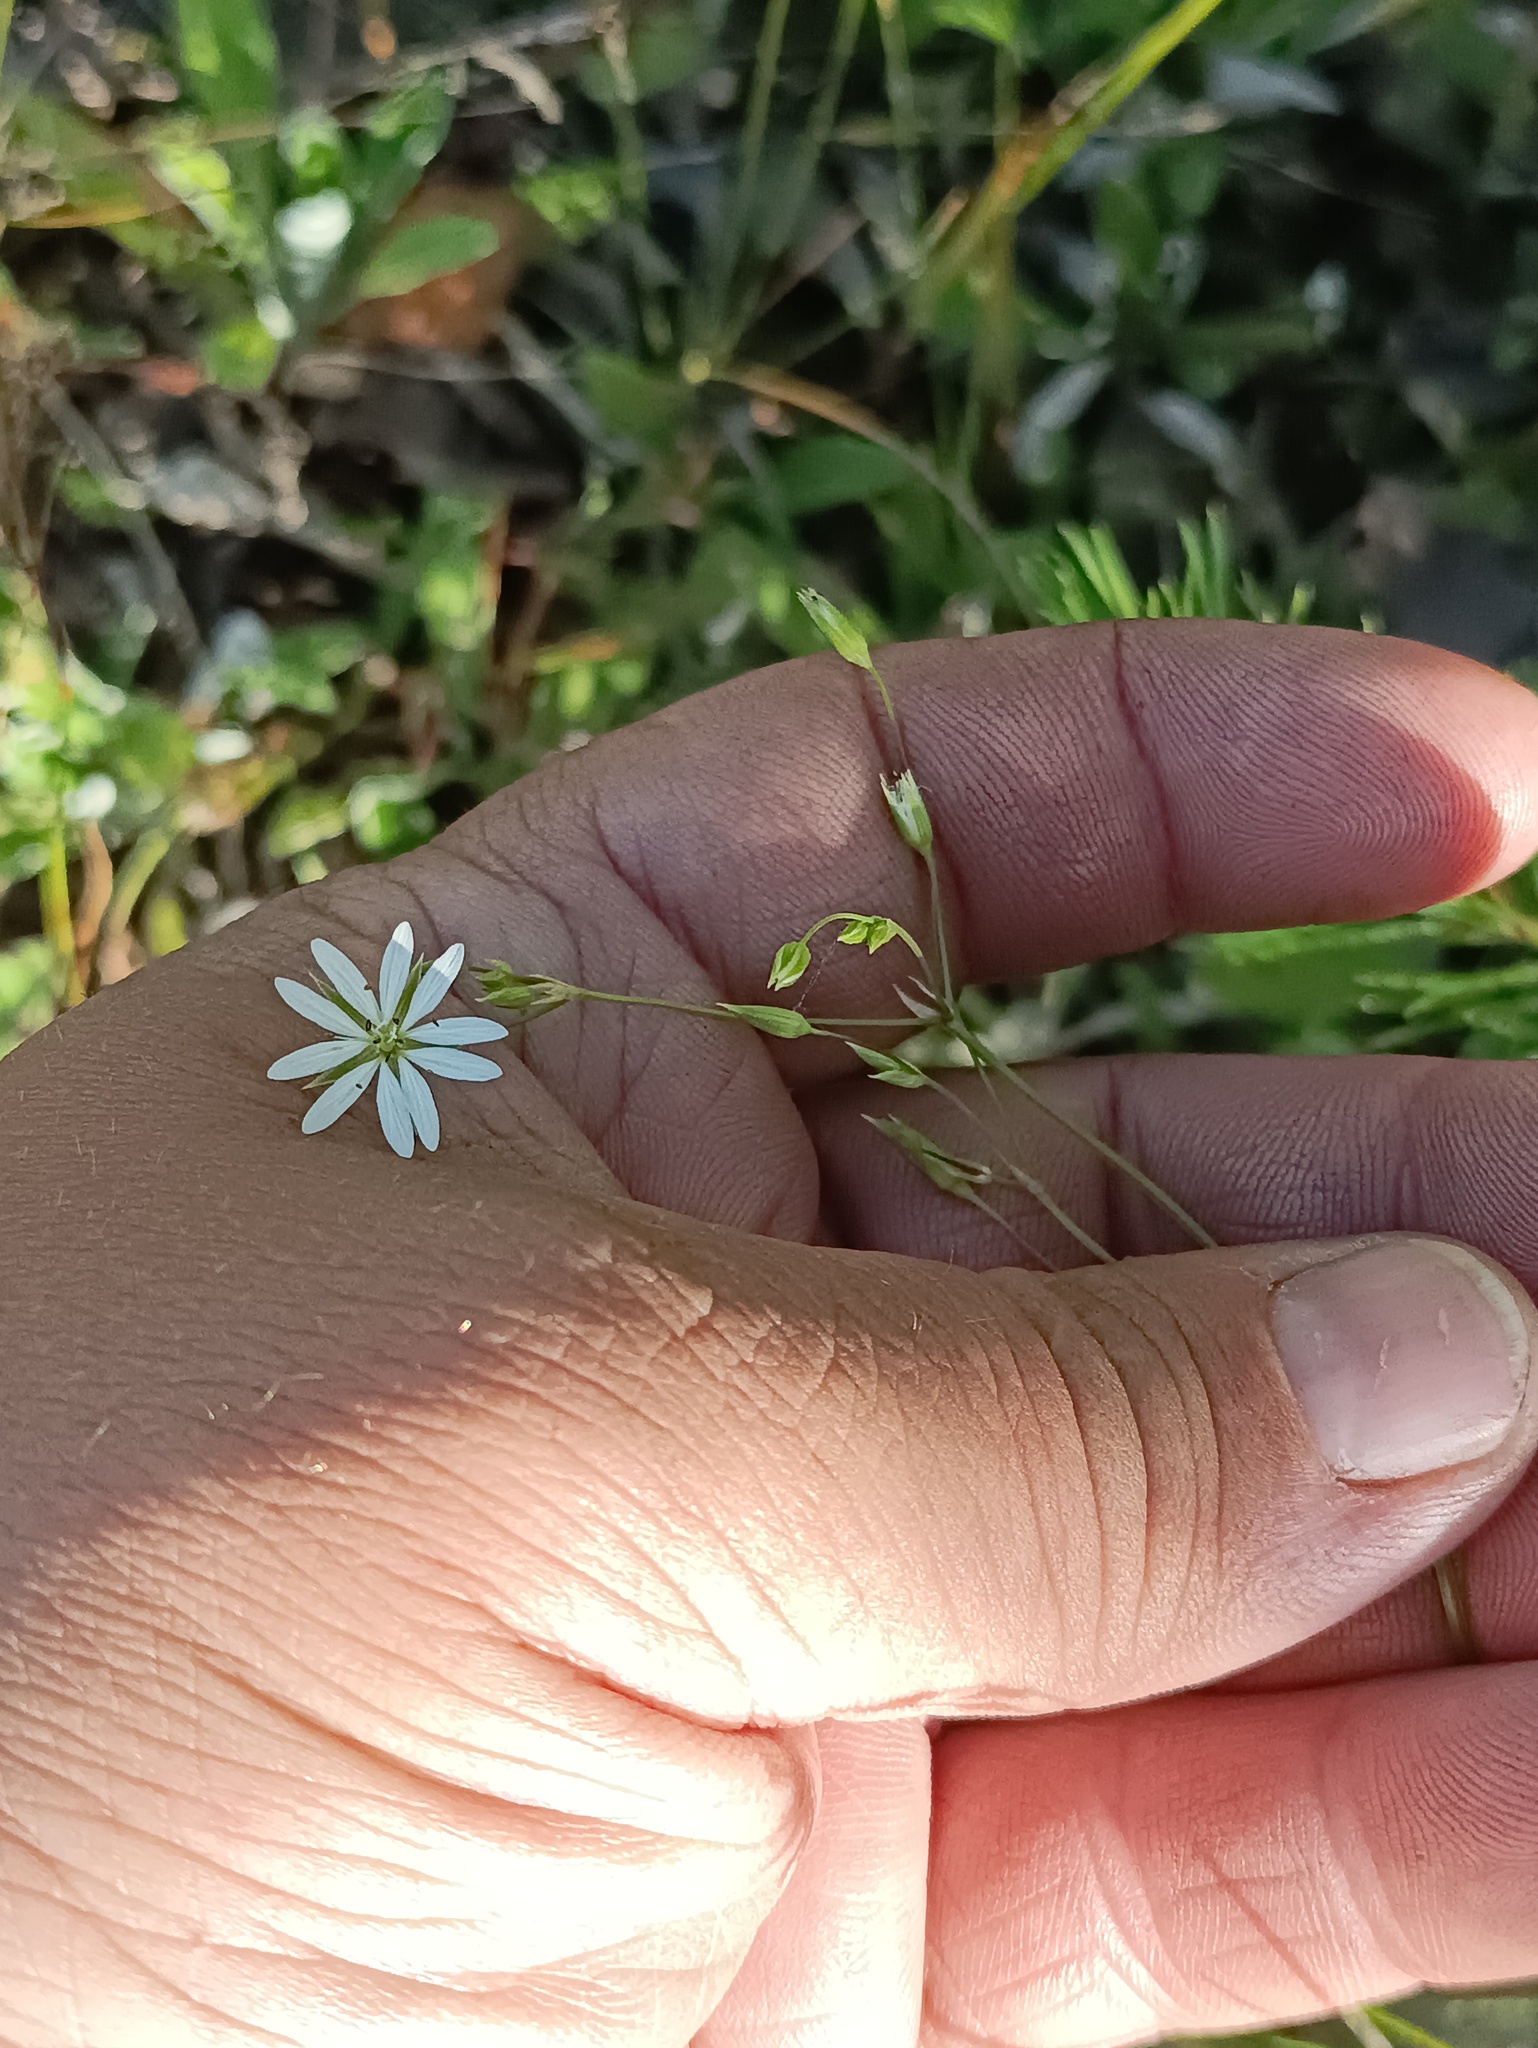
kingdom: Plantae
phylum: Tracheophyta
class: Magnoliopsida
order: Caryophyllales
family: Caryophyllaceae
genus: Stellaria
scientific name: Stellaria graminea
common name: Grass-like starwort
